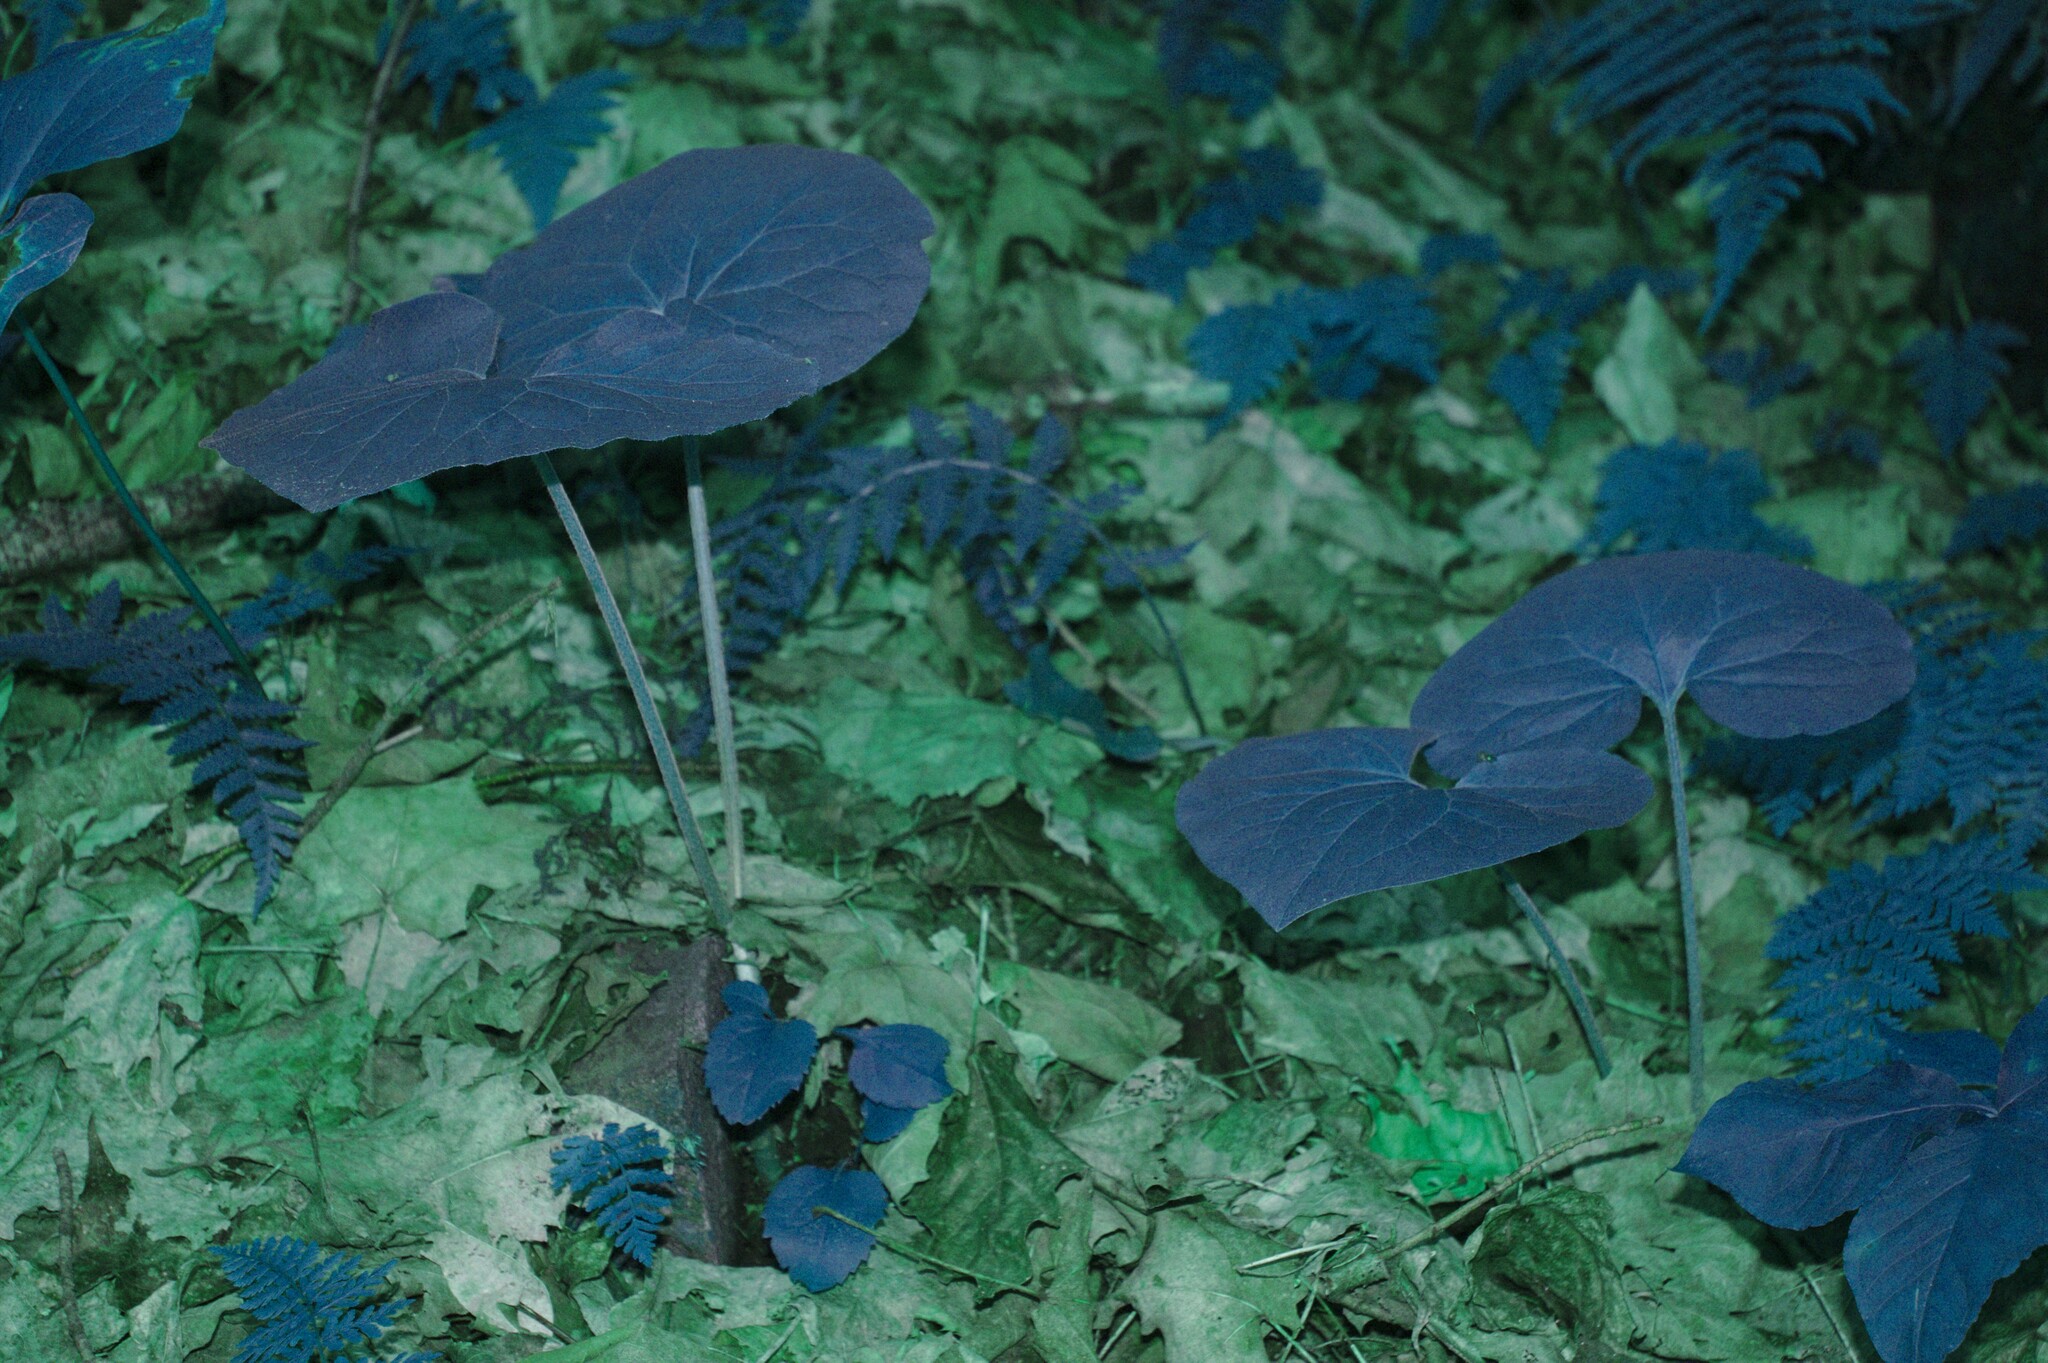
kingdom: Plantae
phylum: Tracheophyta
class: Magnoliopsida
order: Piperales
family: Aristolochiaceae
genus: Asarum
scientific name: Asarum canadense
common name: Wild ginger
